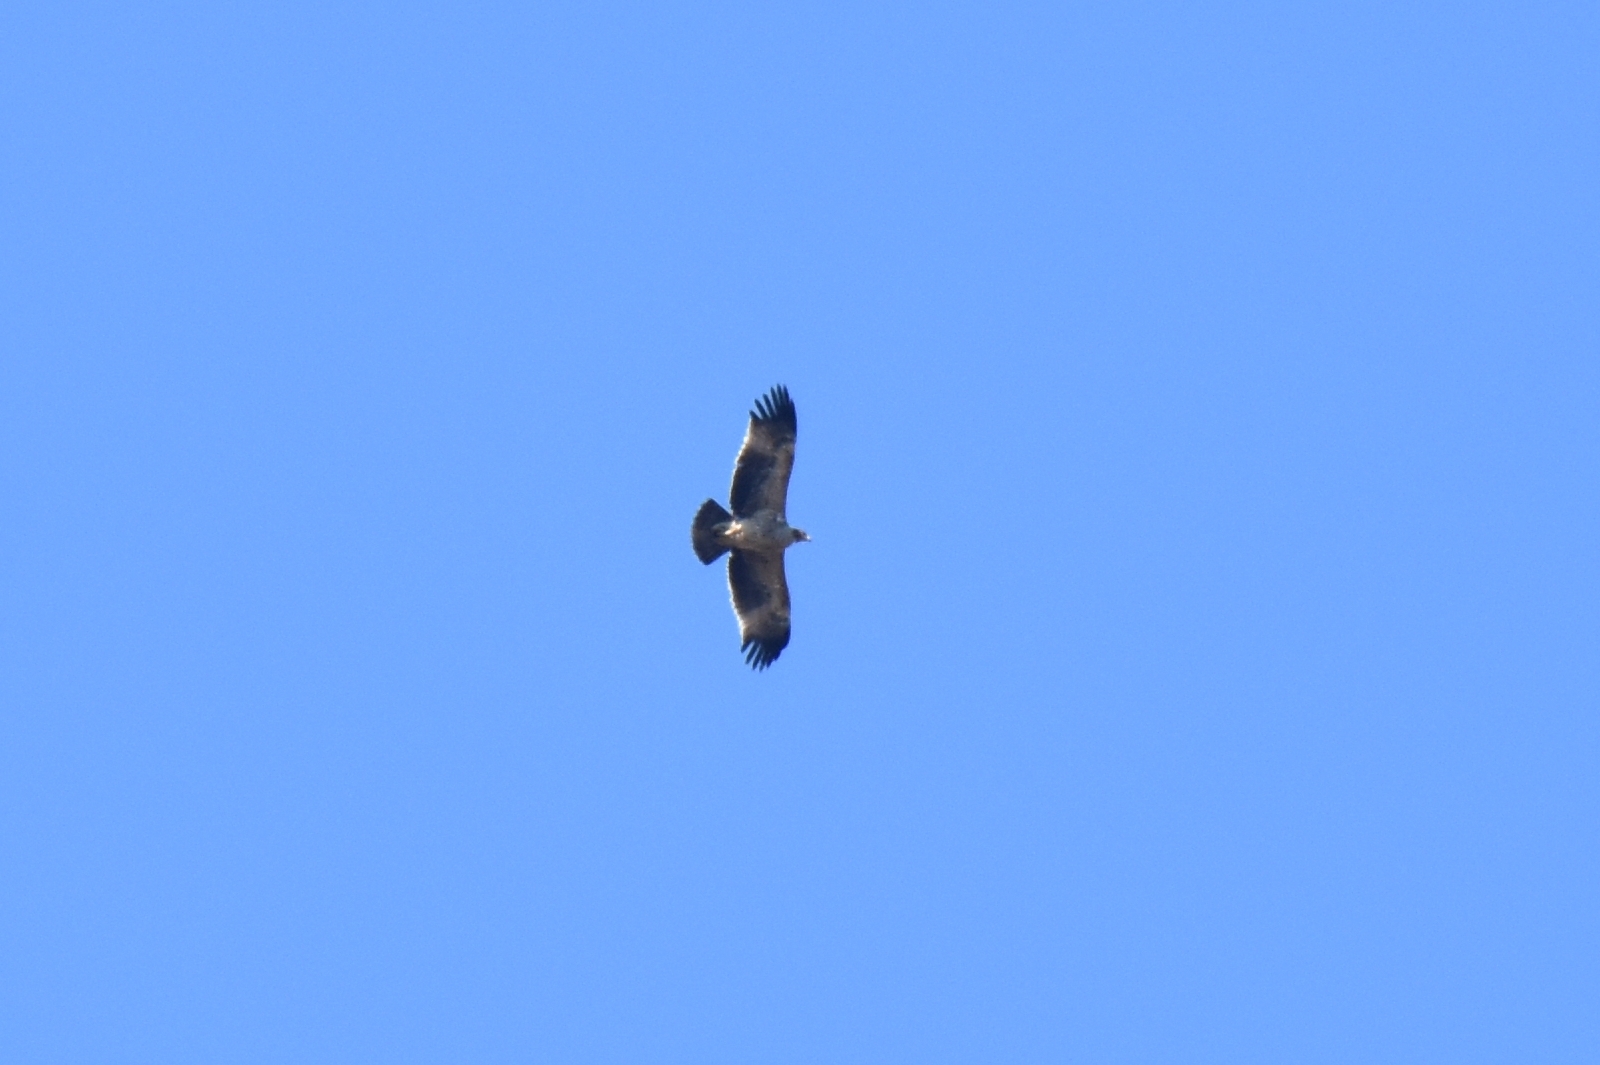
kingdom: Animalia
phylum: Chordata
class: Aves
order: Accipitriformes
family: Accipitridae
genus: Aquila
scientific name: Aquila heliaca
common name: Eastern imperial eagle
